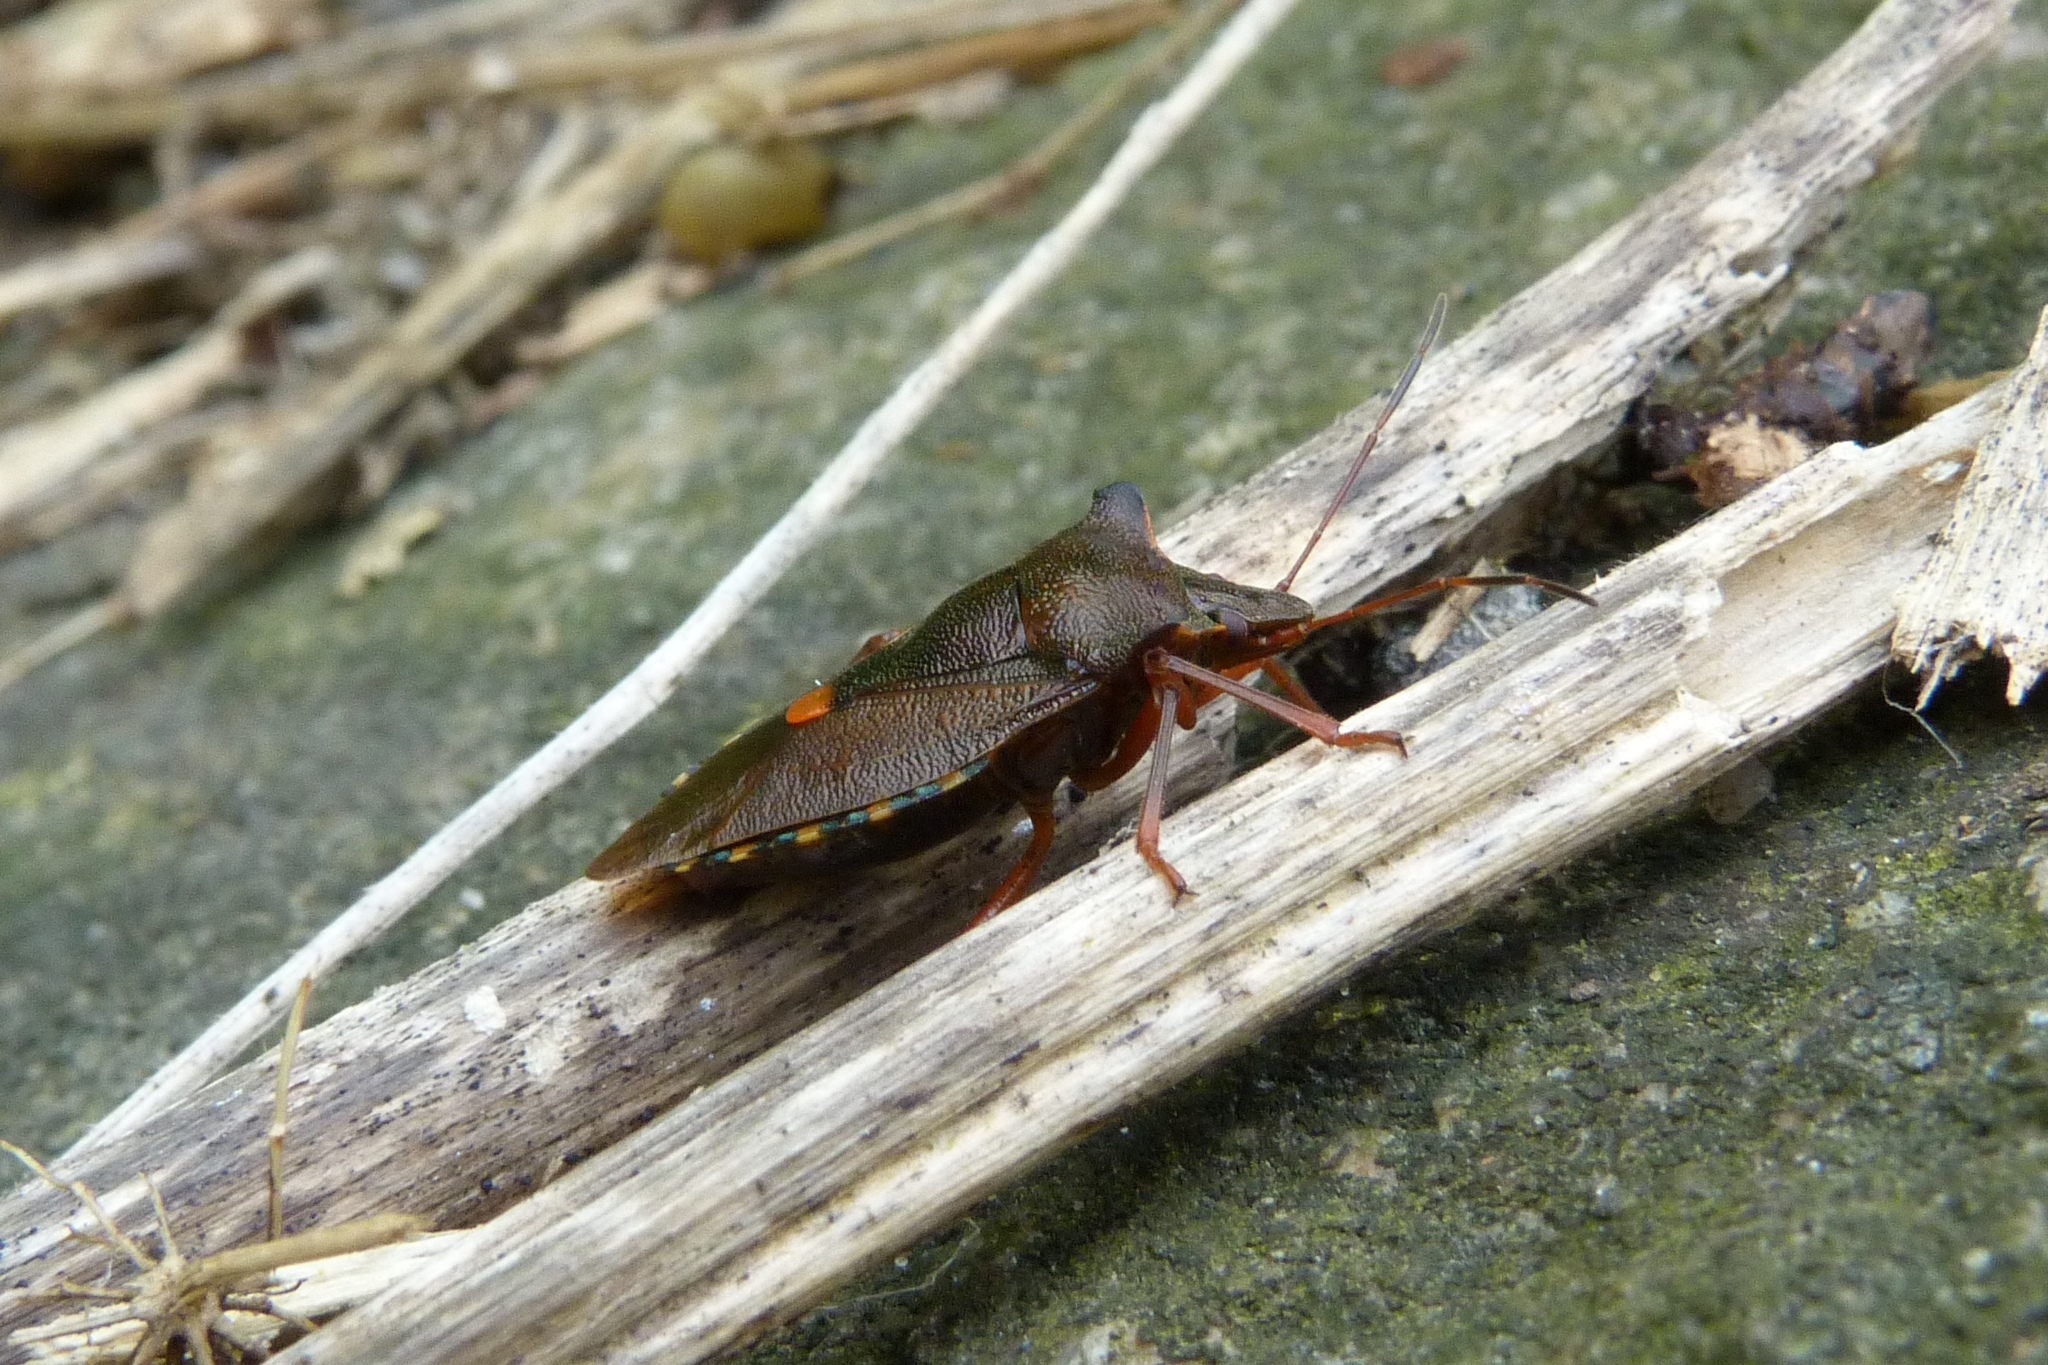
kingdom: Animalia
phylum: Arthropoda
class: Insecta
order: Hemiptera
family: Pentatomidae
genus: Pentatoma
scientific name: Pentatoma rufipes
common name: Forest bug
